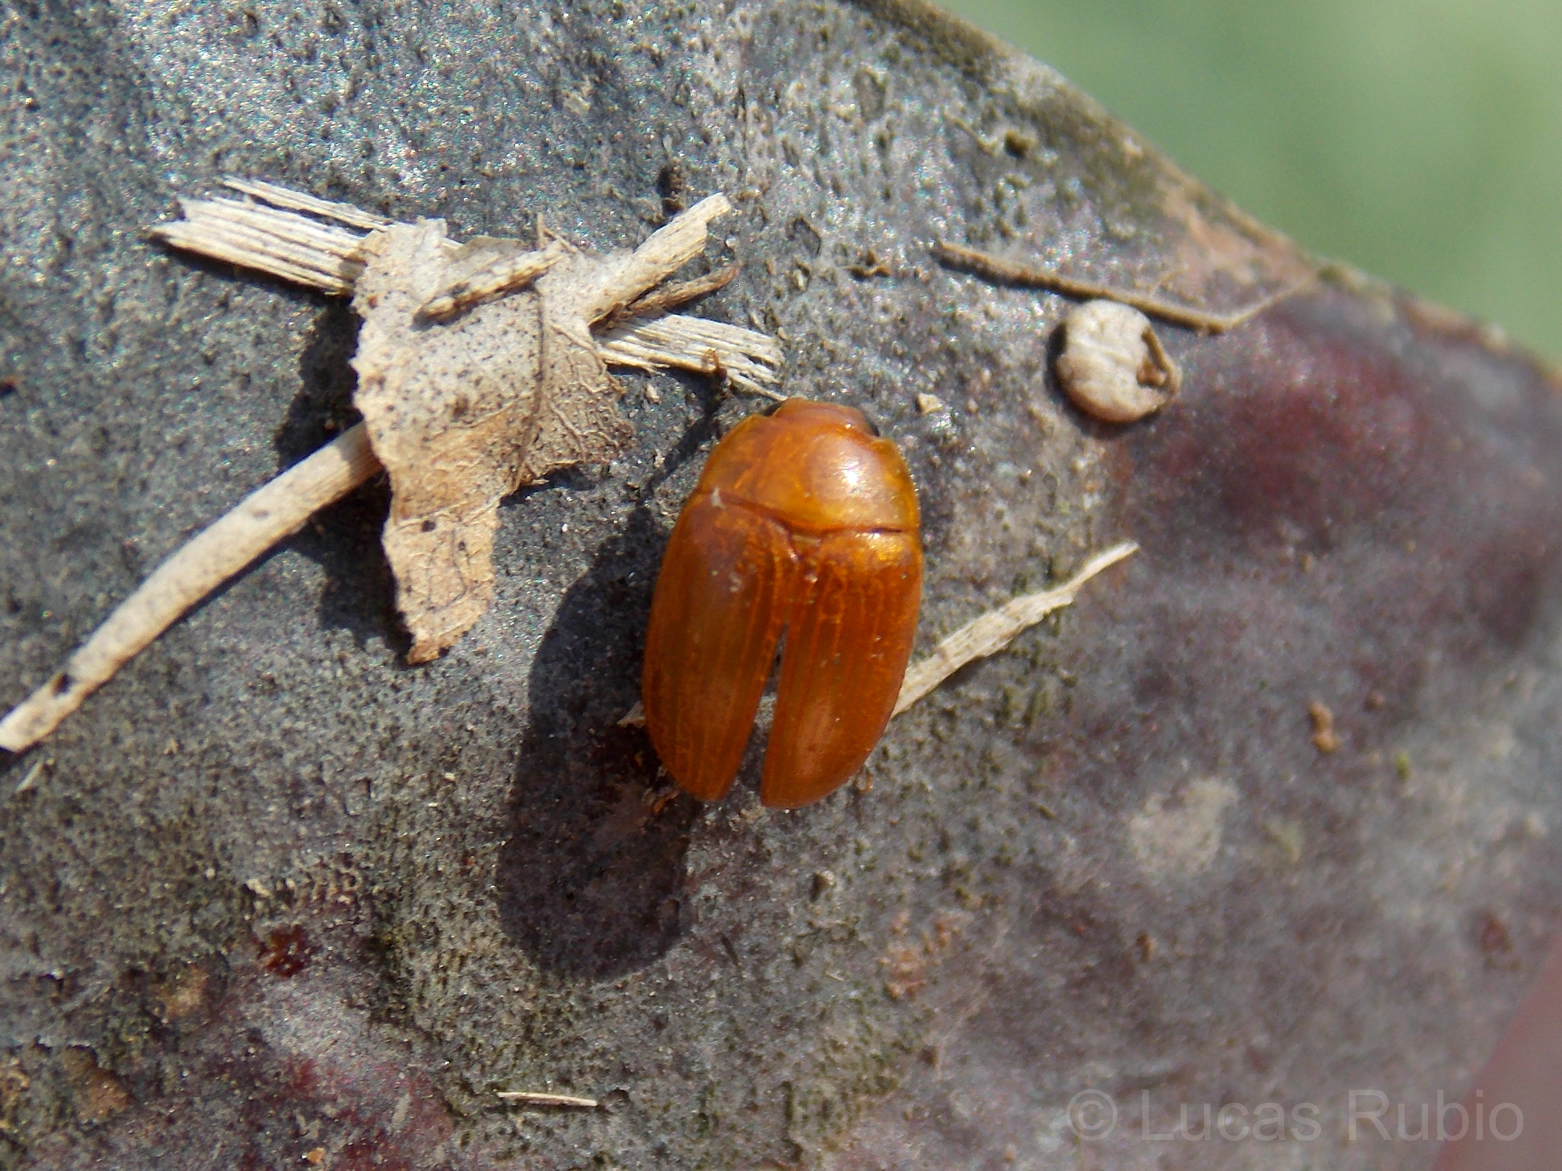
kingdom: Animalia
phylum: Arthropoda
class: Insecta
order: Coleoptera
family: Erotylidae
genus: Mycomystes
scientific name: Mycomystes nigriventris
